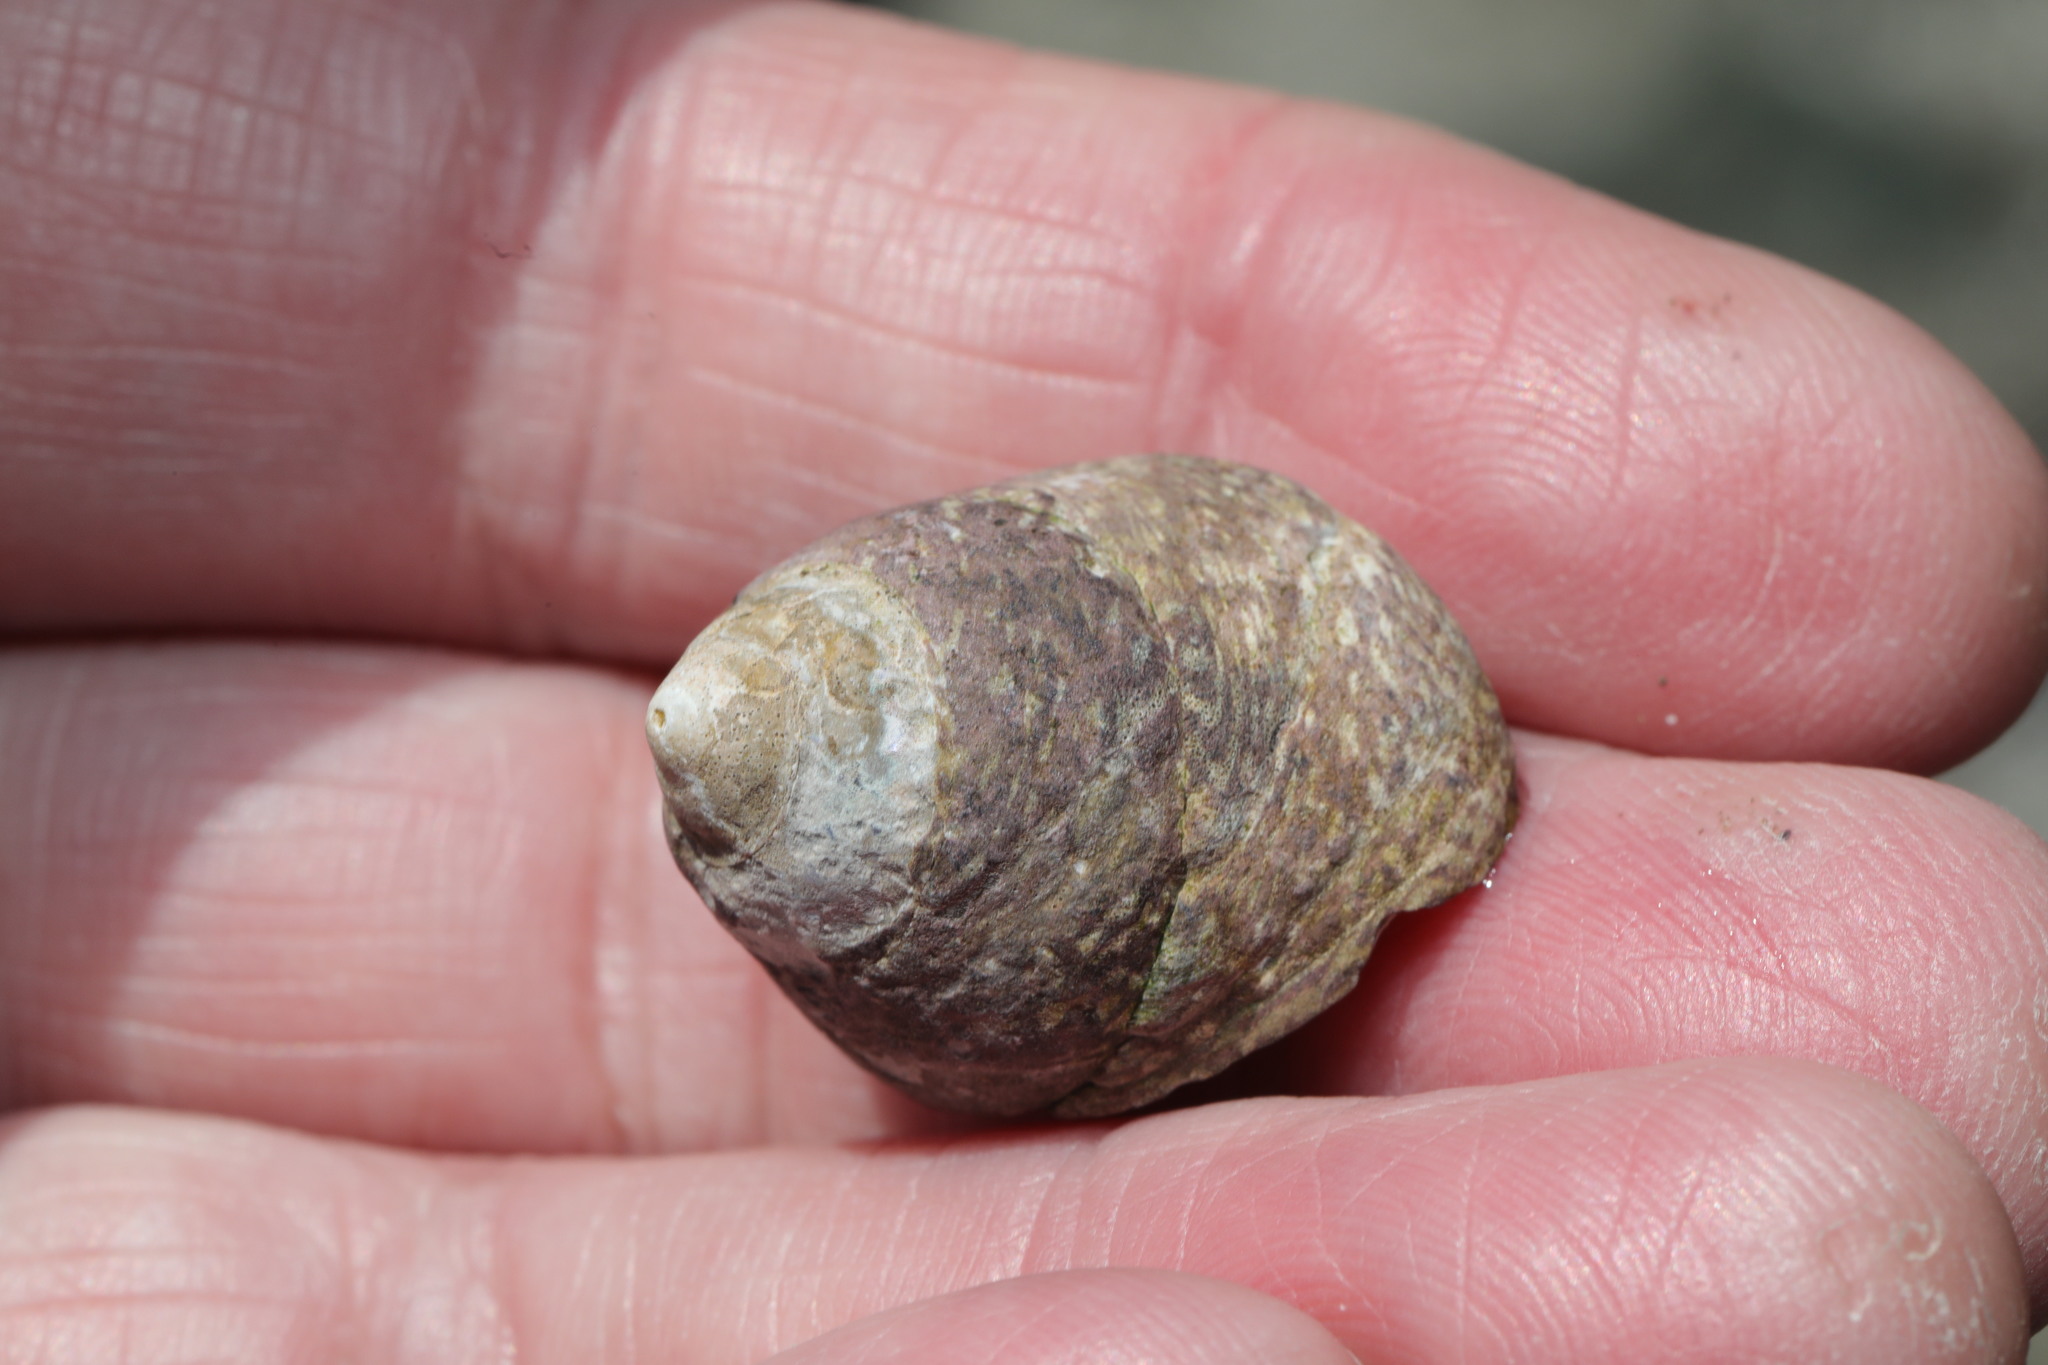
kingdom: Animalia
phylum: Mollusca
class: Gastropoda
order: Trochida
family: Trochidae
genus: Phorcus
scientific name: Phorcus lineatus
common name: Toothed top shell
